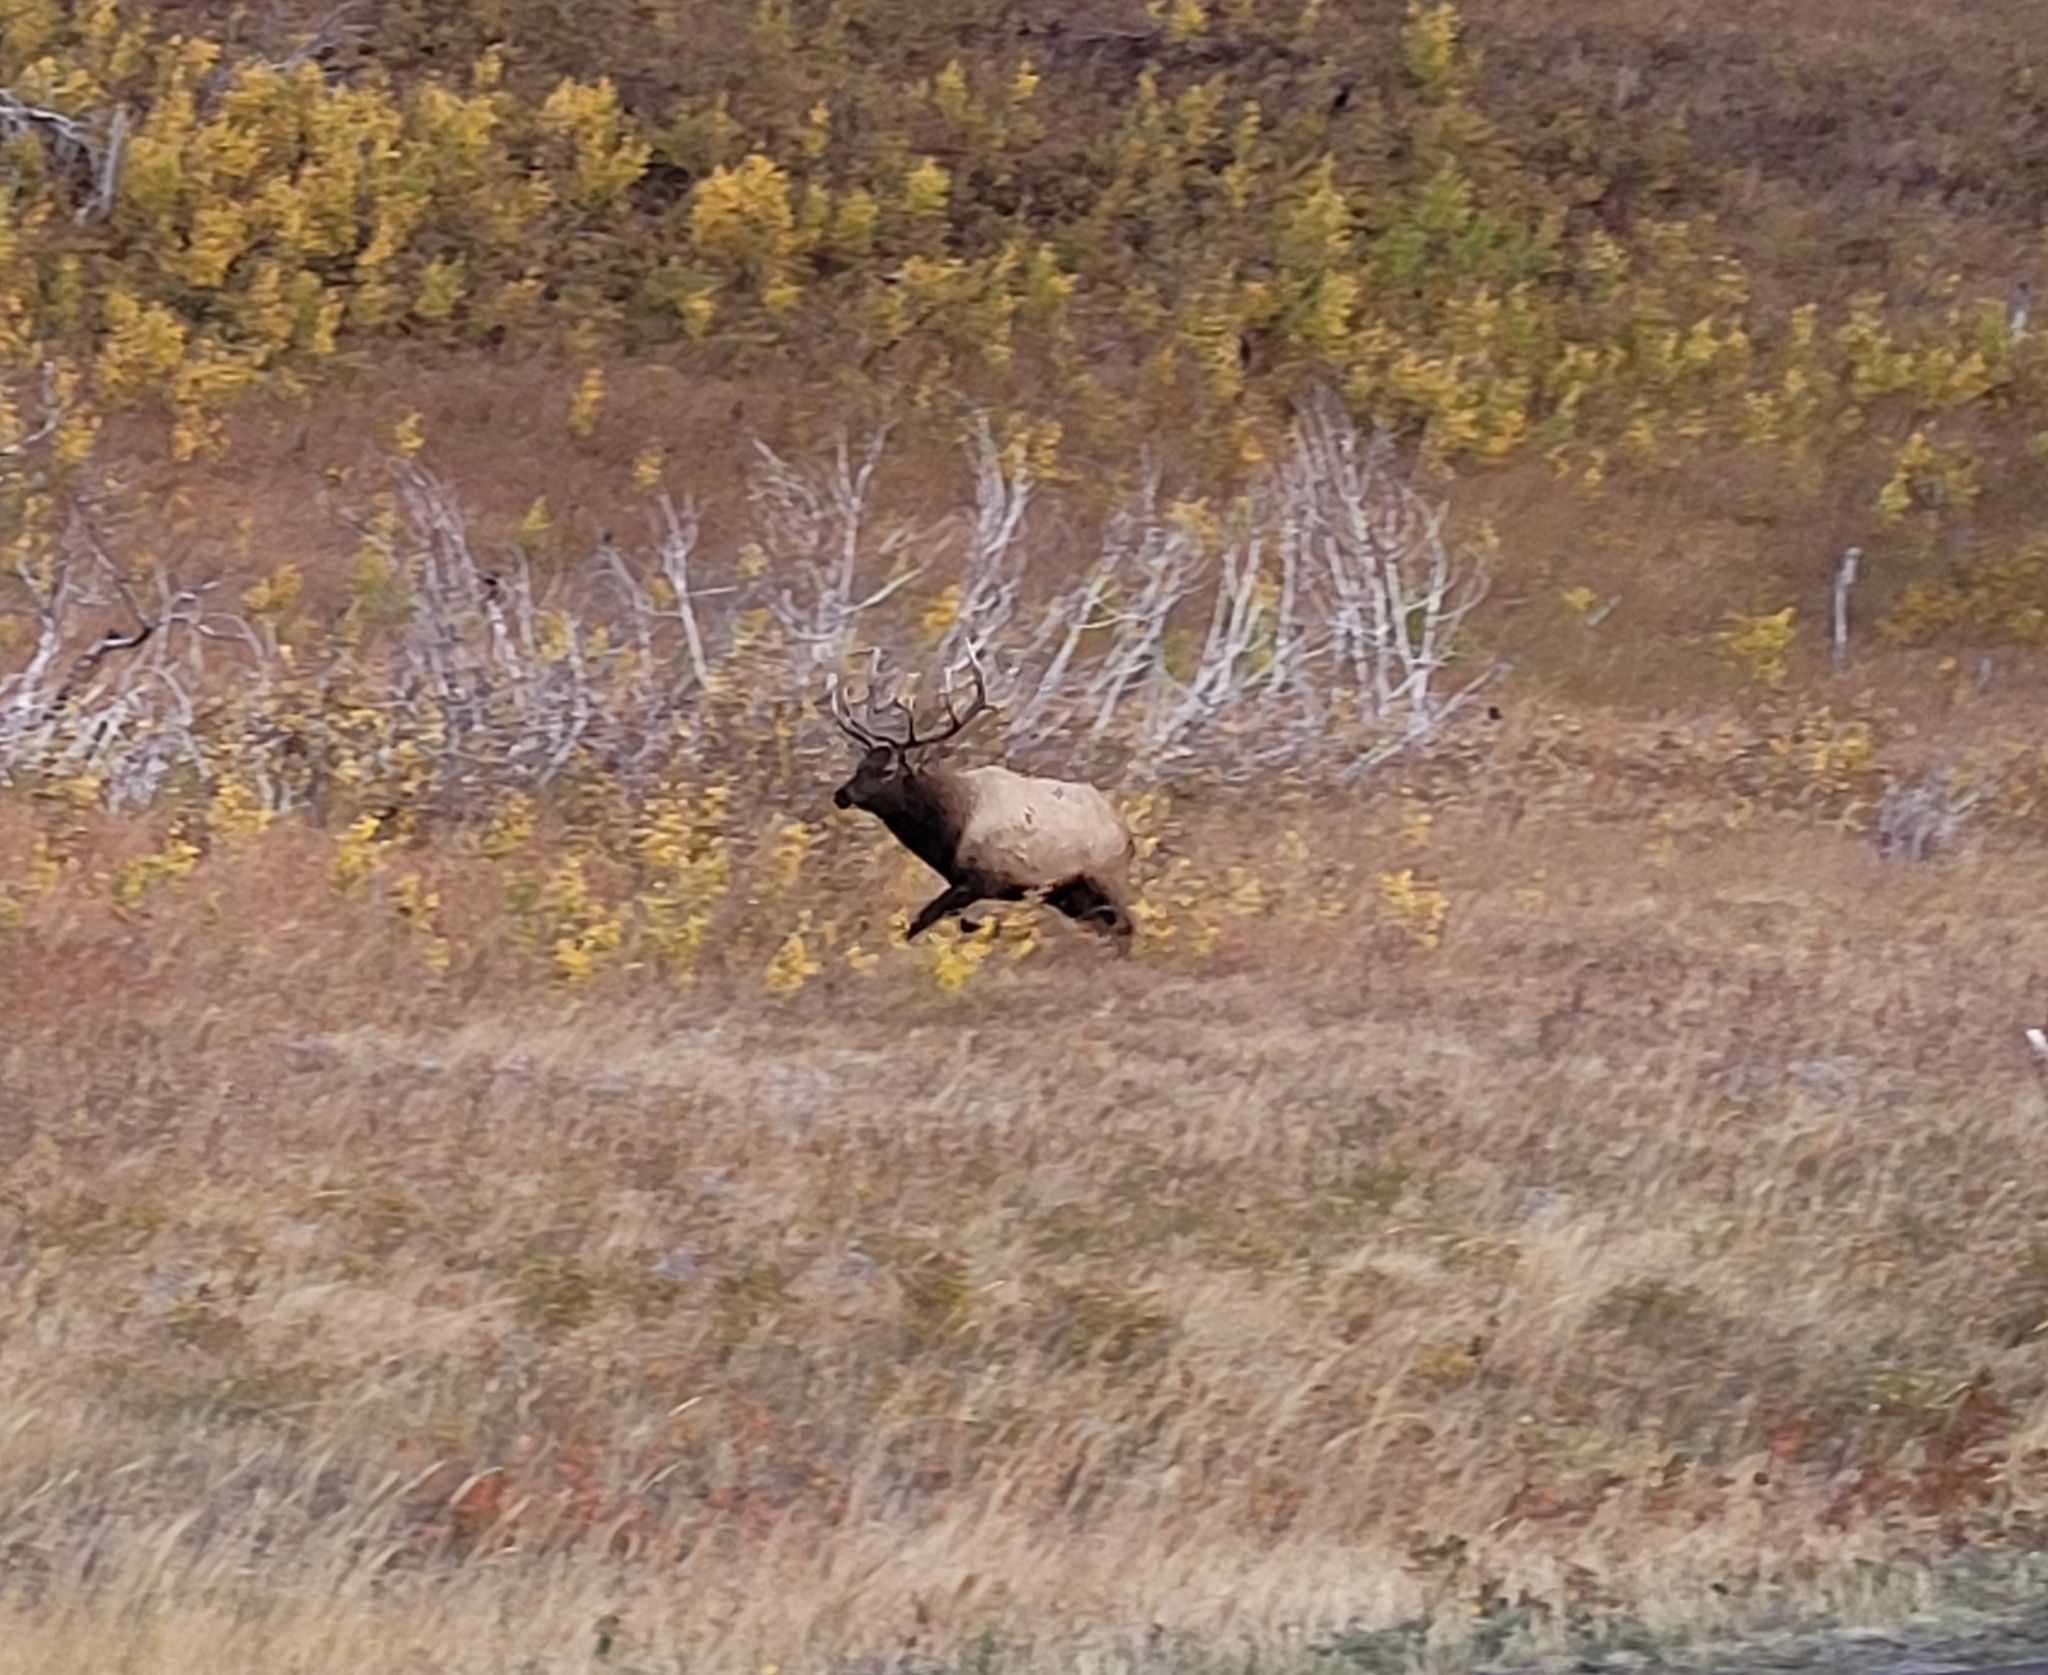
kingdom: Animalia
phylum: Chordata
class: Mammalia
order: Artiodactyla
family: Cervidae
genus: Cervus
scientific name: Cervus elaphus
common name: Red deer
